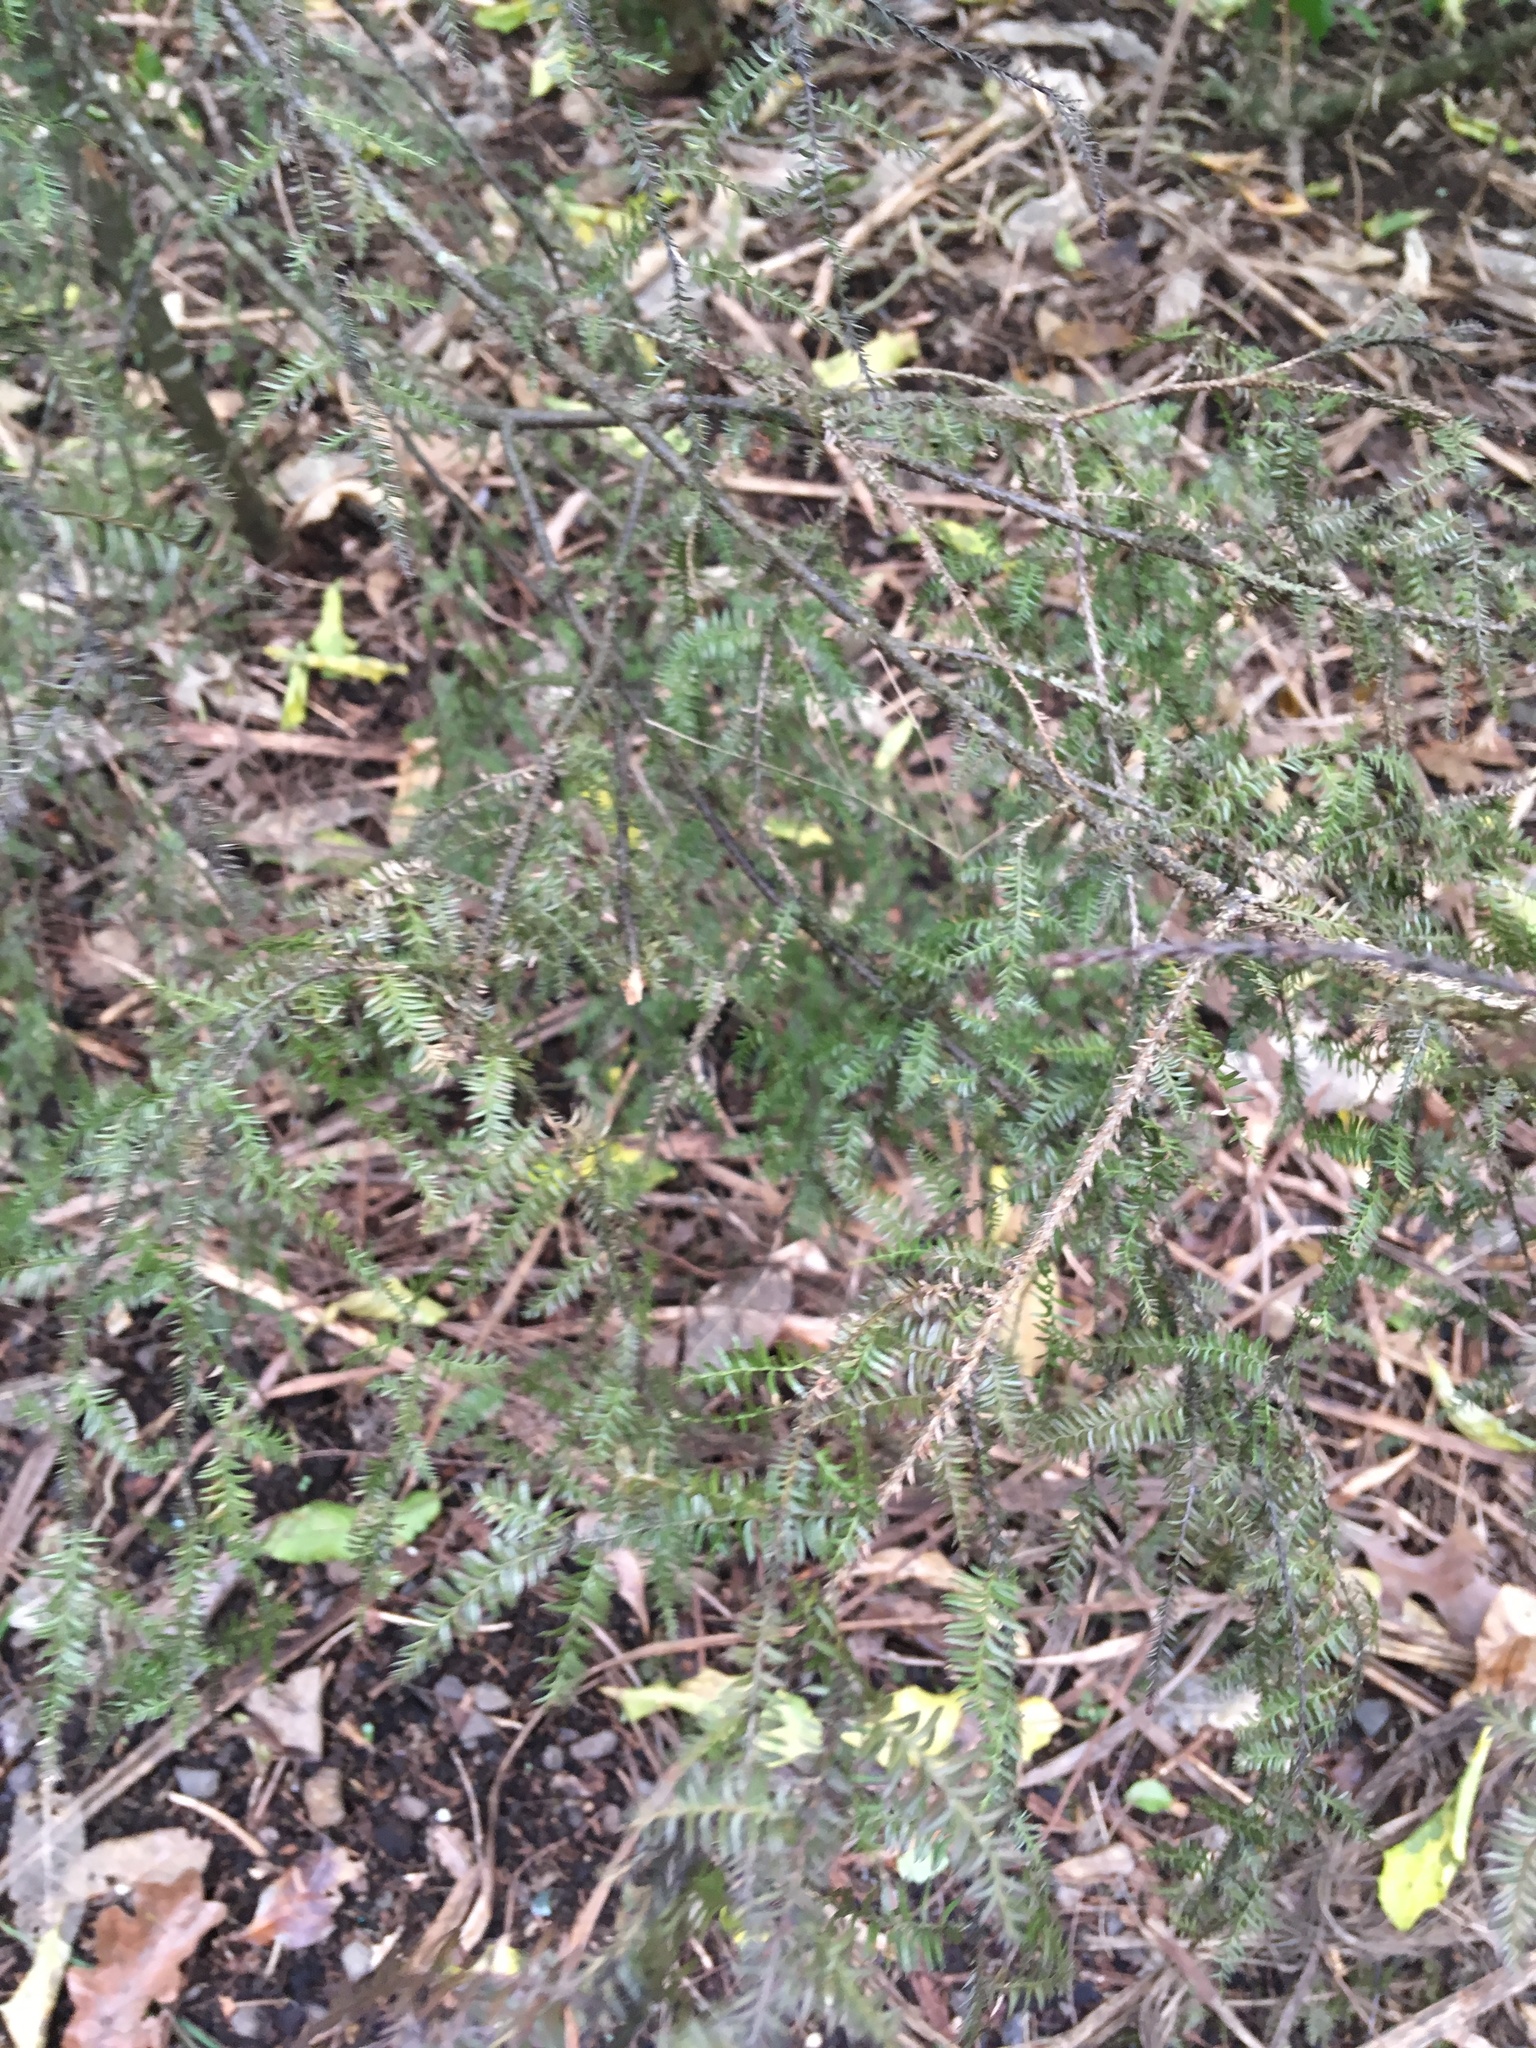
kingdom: Plantae
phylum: Tracheophyta
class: Pinopsida
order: Pinales
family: Podocarpaceae
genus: Dacrycarpus
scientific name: Dacrycarpus dacrydioides
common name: White pine
